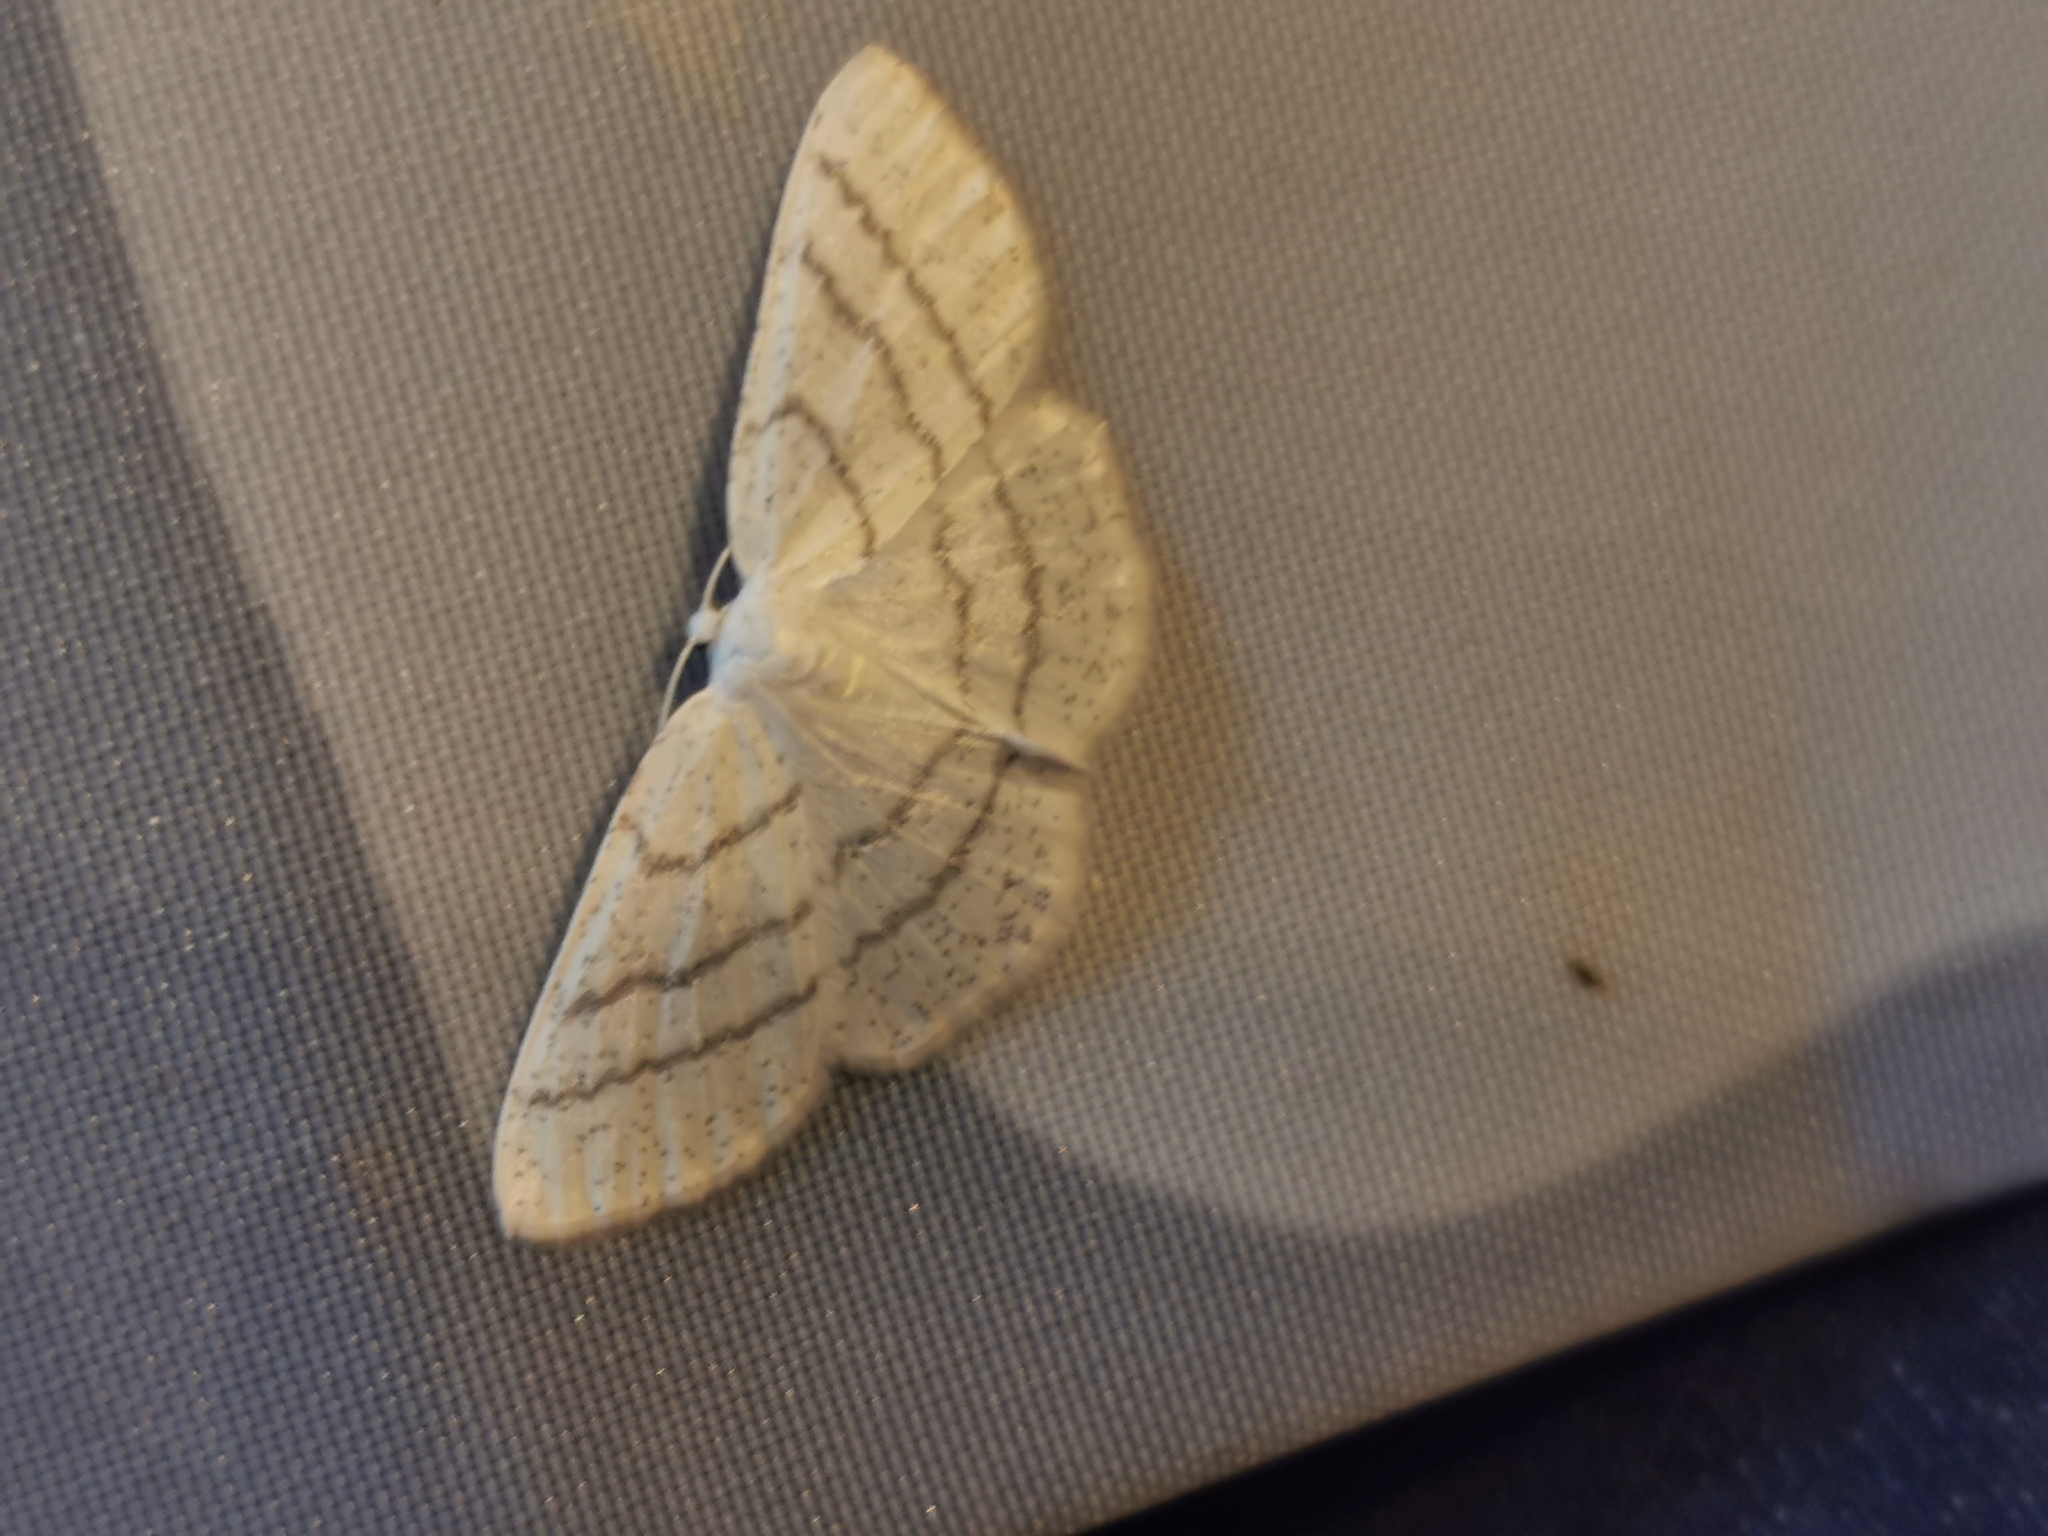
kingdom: Animalia
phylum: Arthropoda
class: Insecta
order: Lepidoptera
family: Geometridae
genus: Cabera
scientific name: Cabera pusaria
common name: Common white wave
